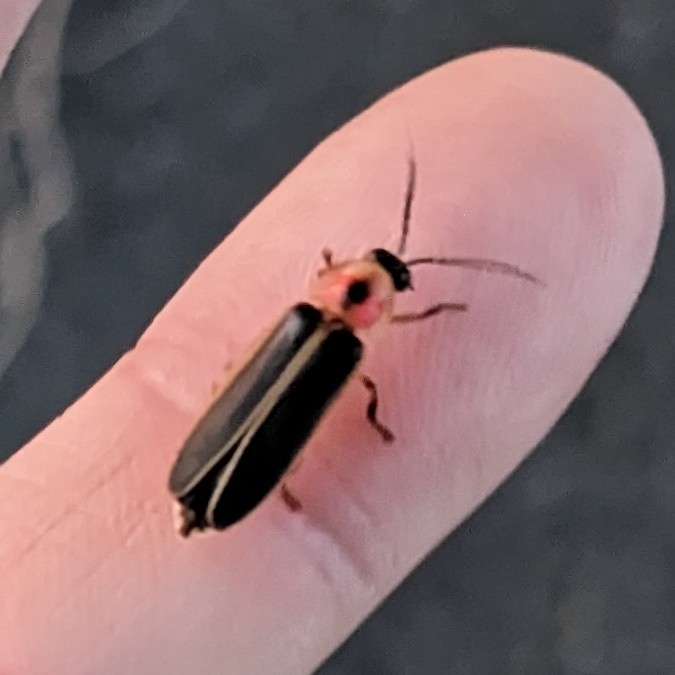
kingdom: Animalia
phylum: Arthropoda
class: Insecta
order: Coleoptera
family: Lampyridae
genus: Photinus
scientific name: Photinus pyralis
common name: Big dipper firefly
